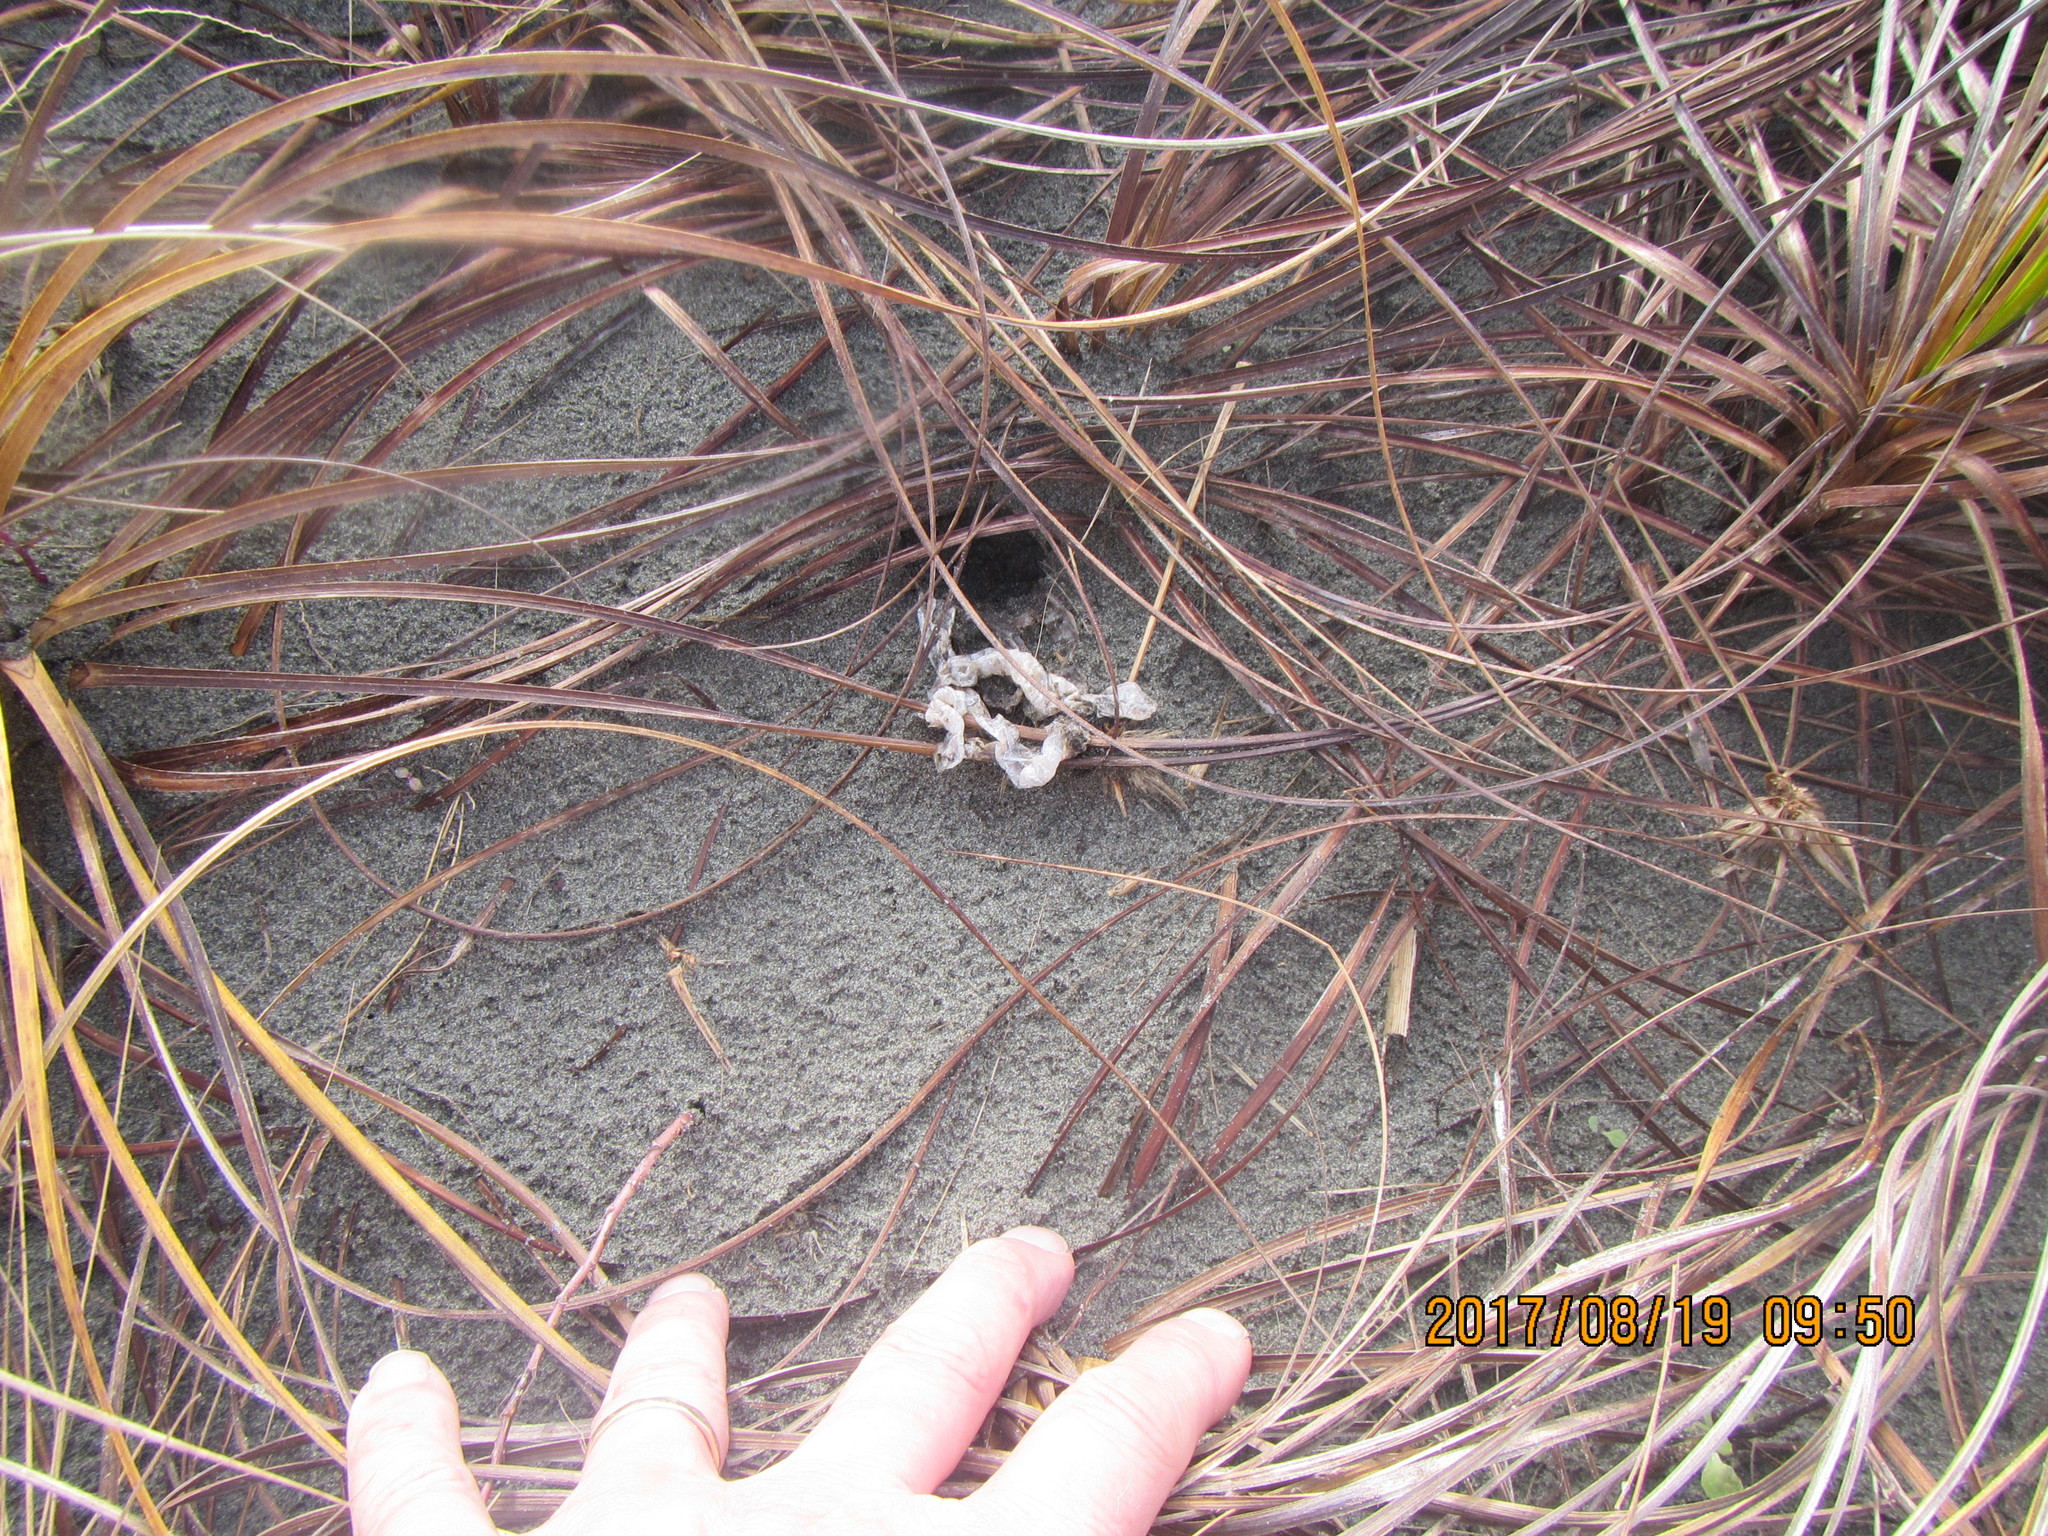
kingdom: Fungi
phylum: Basidiomycota
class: Agaricomycetes
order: Phallales
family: Phallaceae
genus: Ileodictyon
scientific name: Ileodictyon cibarium
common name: Basket fungus
